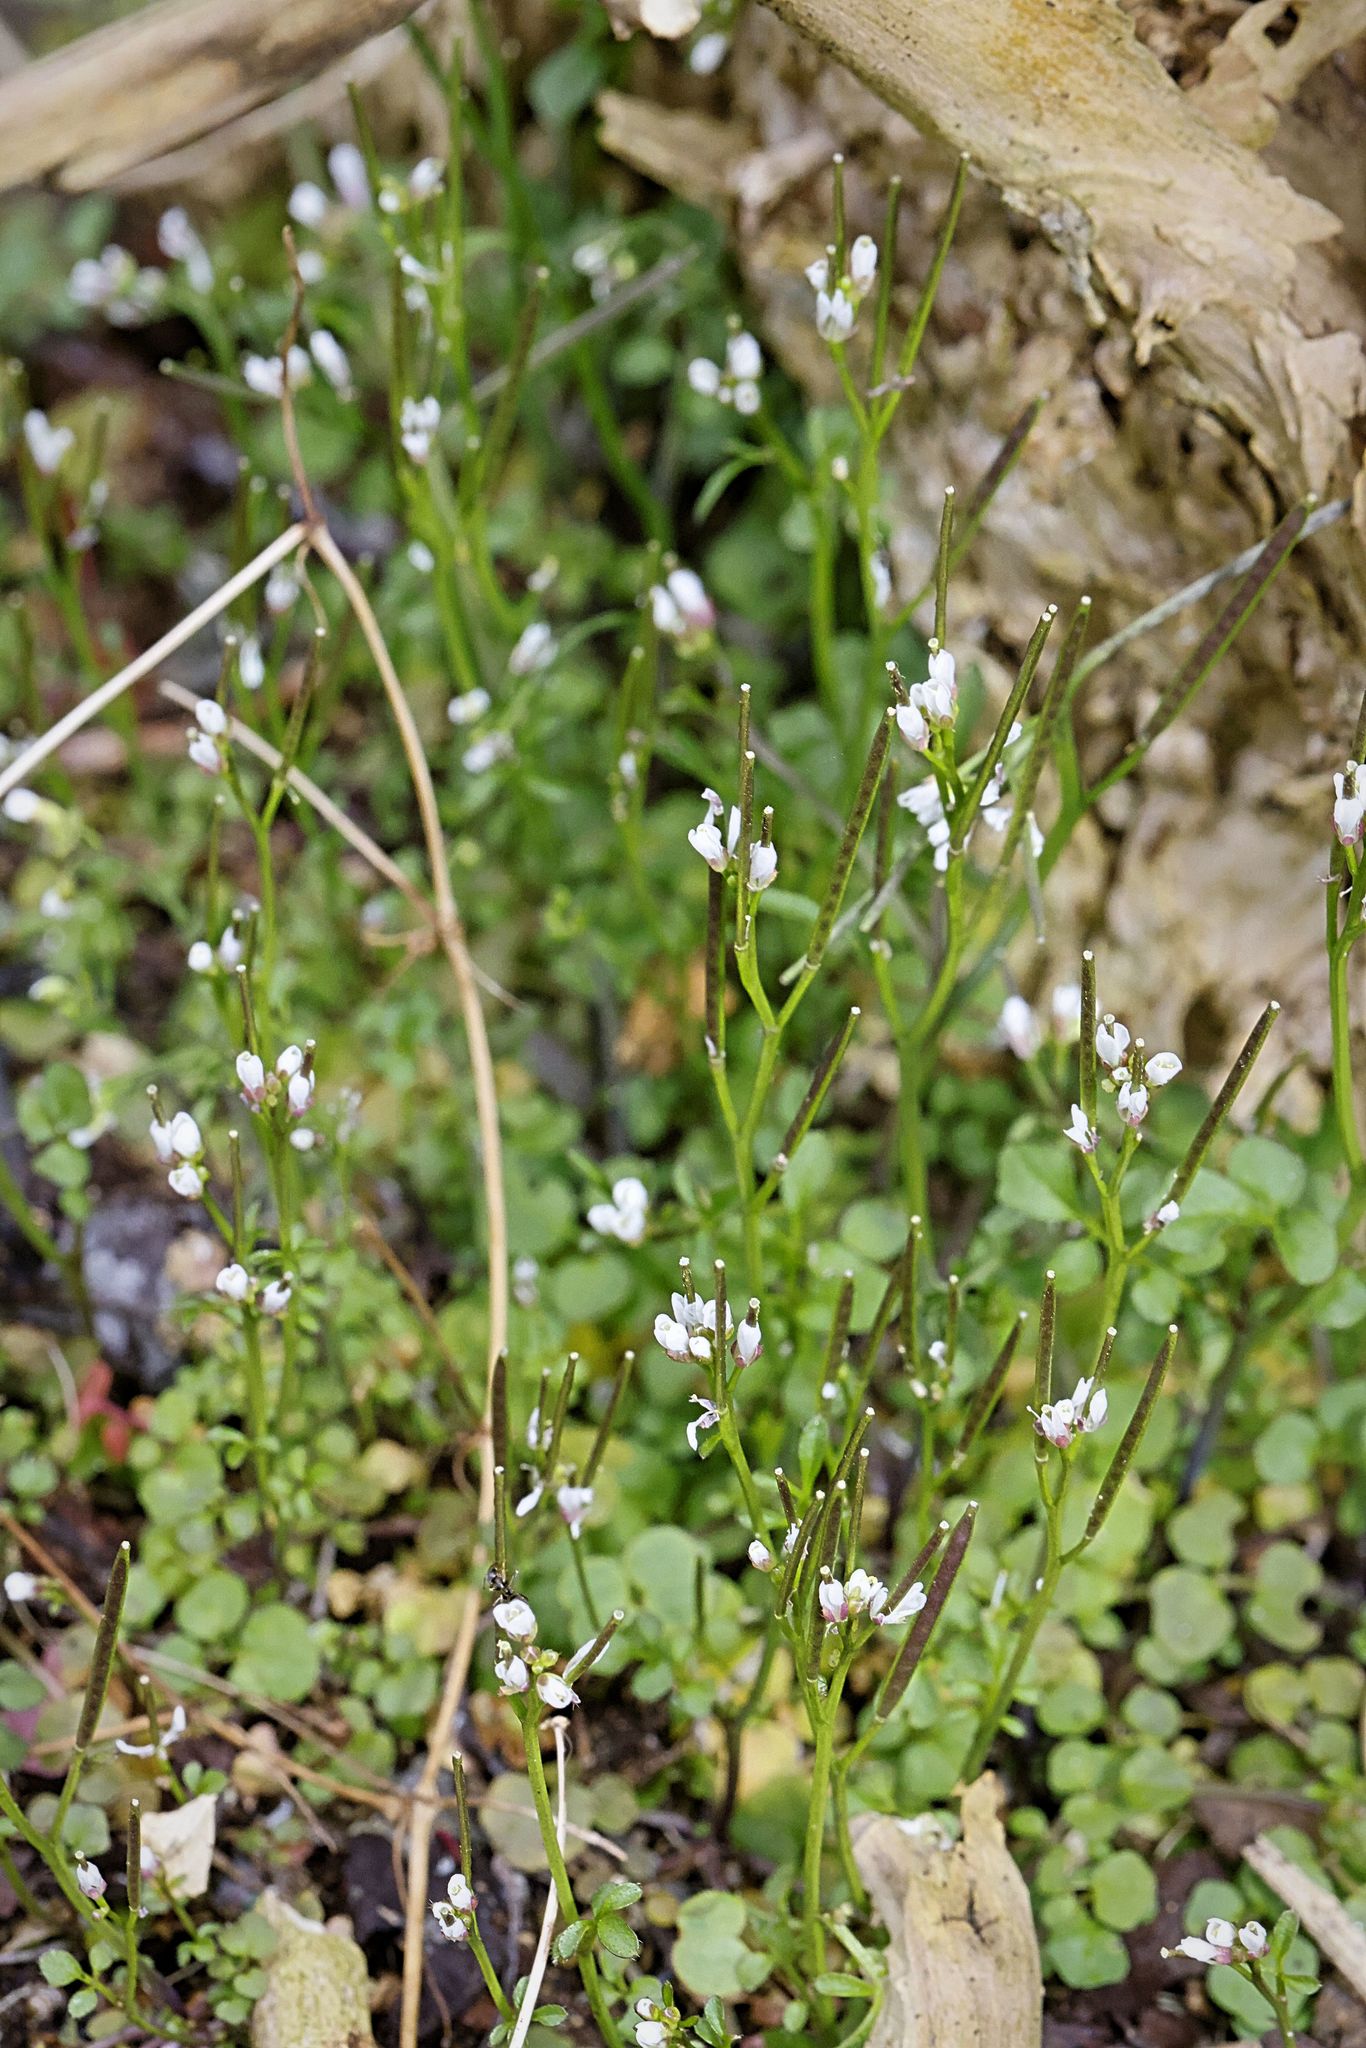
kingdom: Plantae
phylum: Tracheophyta
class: Magnoliopsida
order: Brassicales
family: Brassicaceae
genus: Cardamine
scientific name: Cardamine hirsuta
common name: Hairy bittercress
